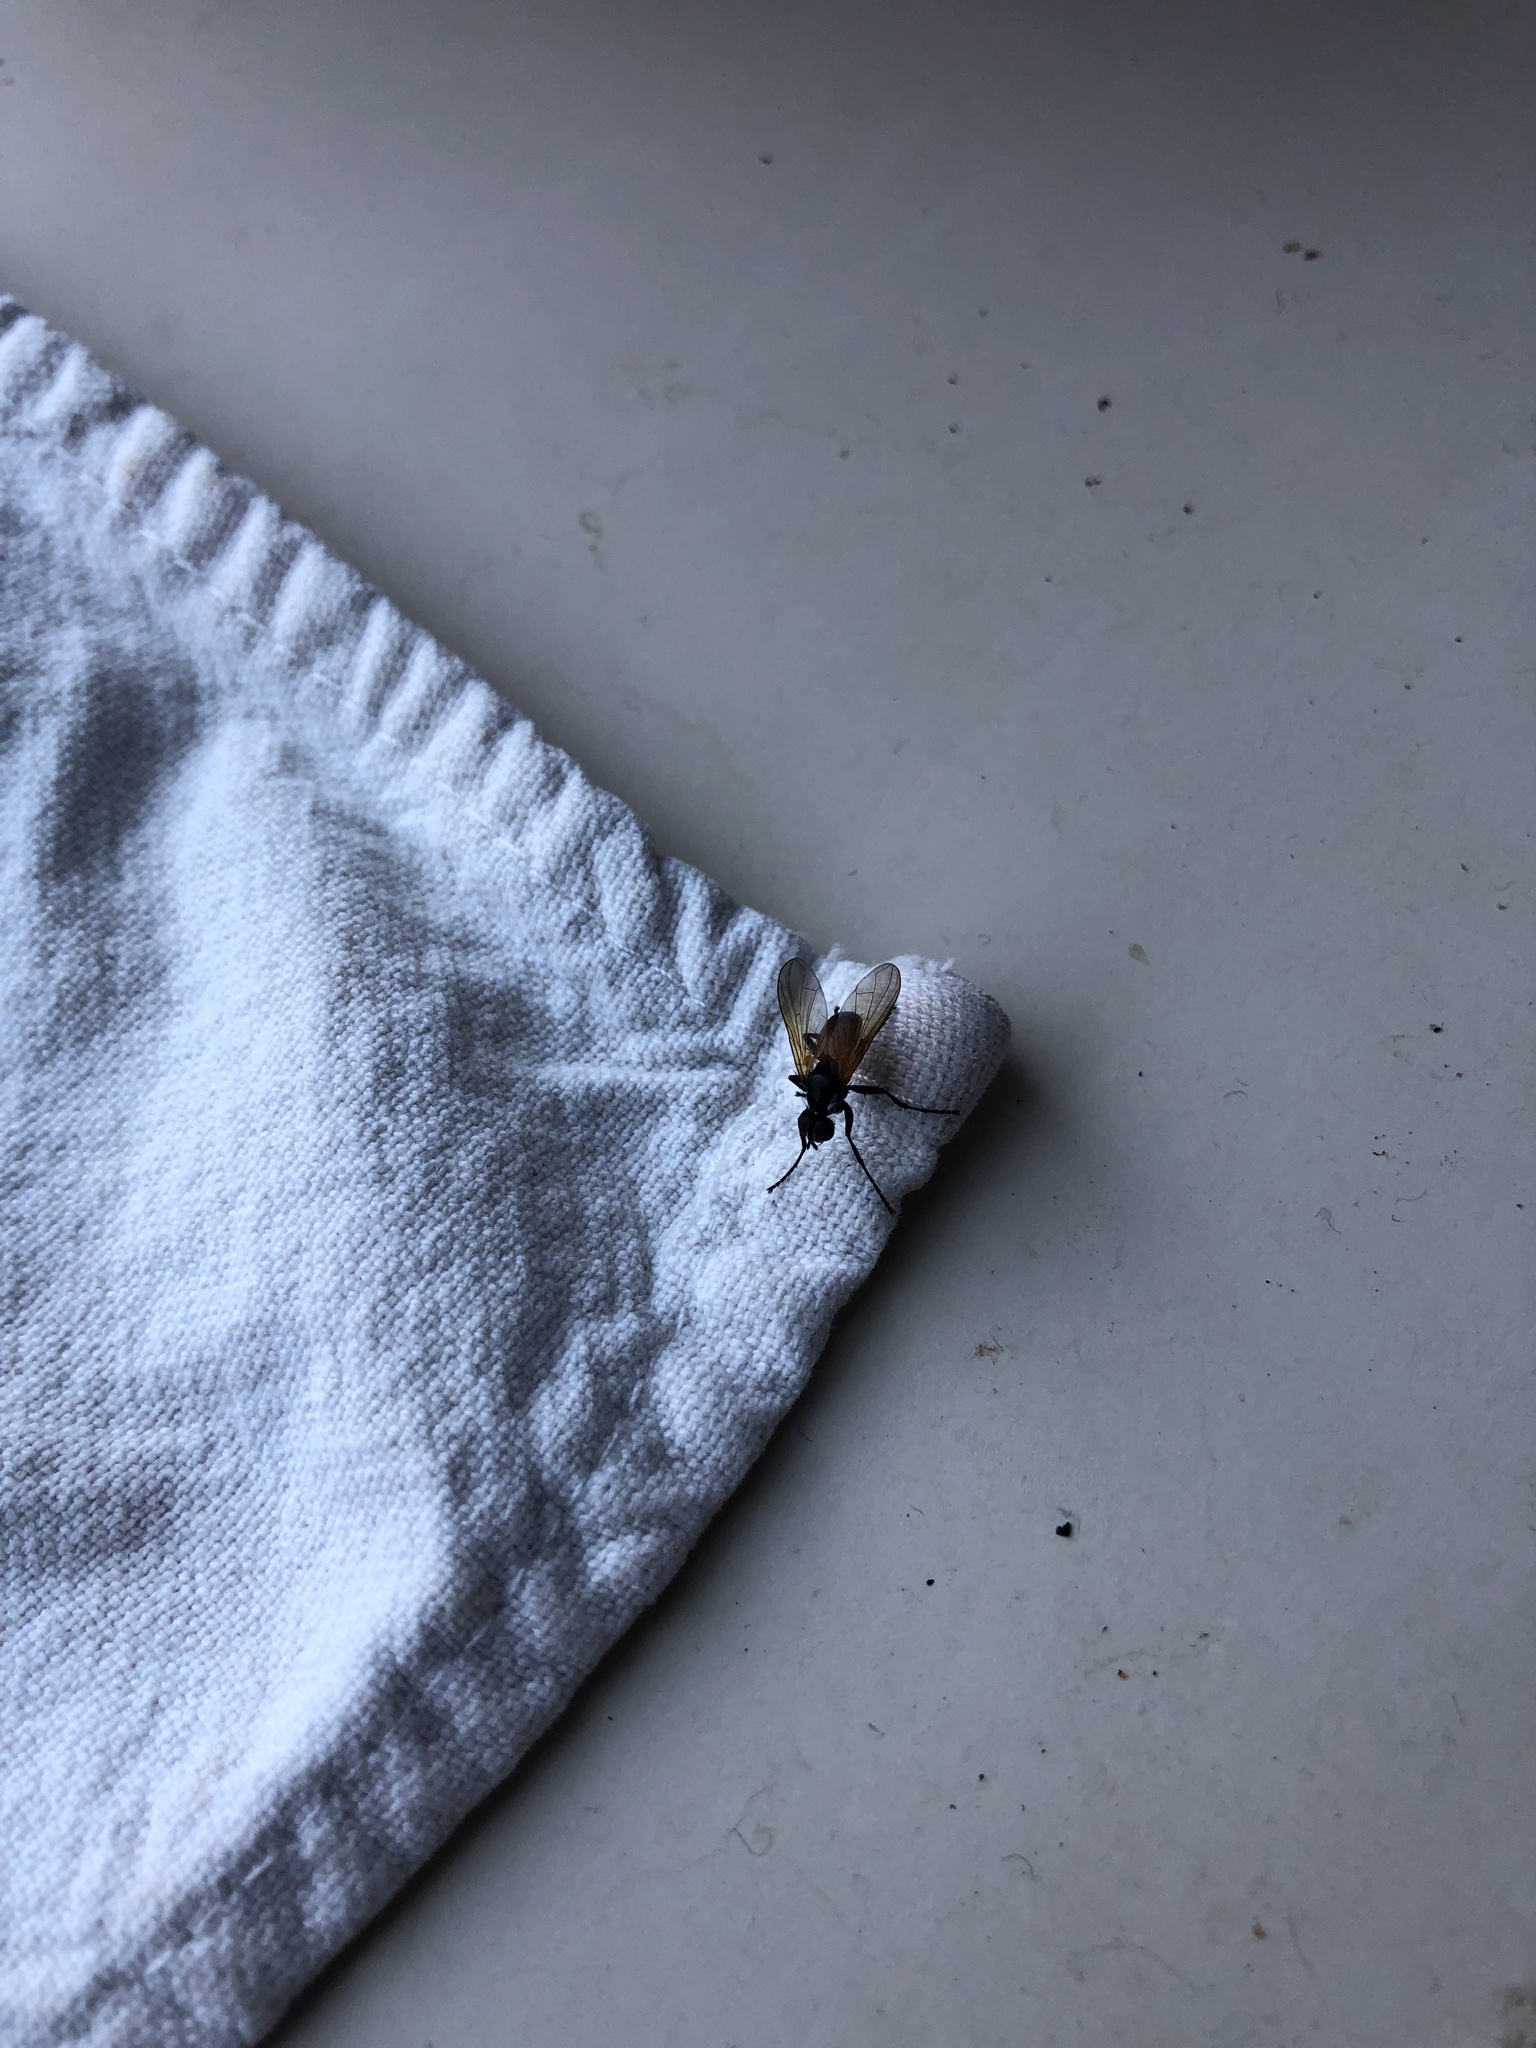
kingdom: Animalia
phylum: Arthropoda
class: Insecta
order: Diptera
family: Tachinidae
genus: Huttonobesseria
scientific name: Huttonobesseria verecunda
